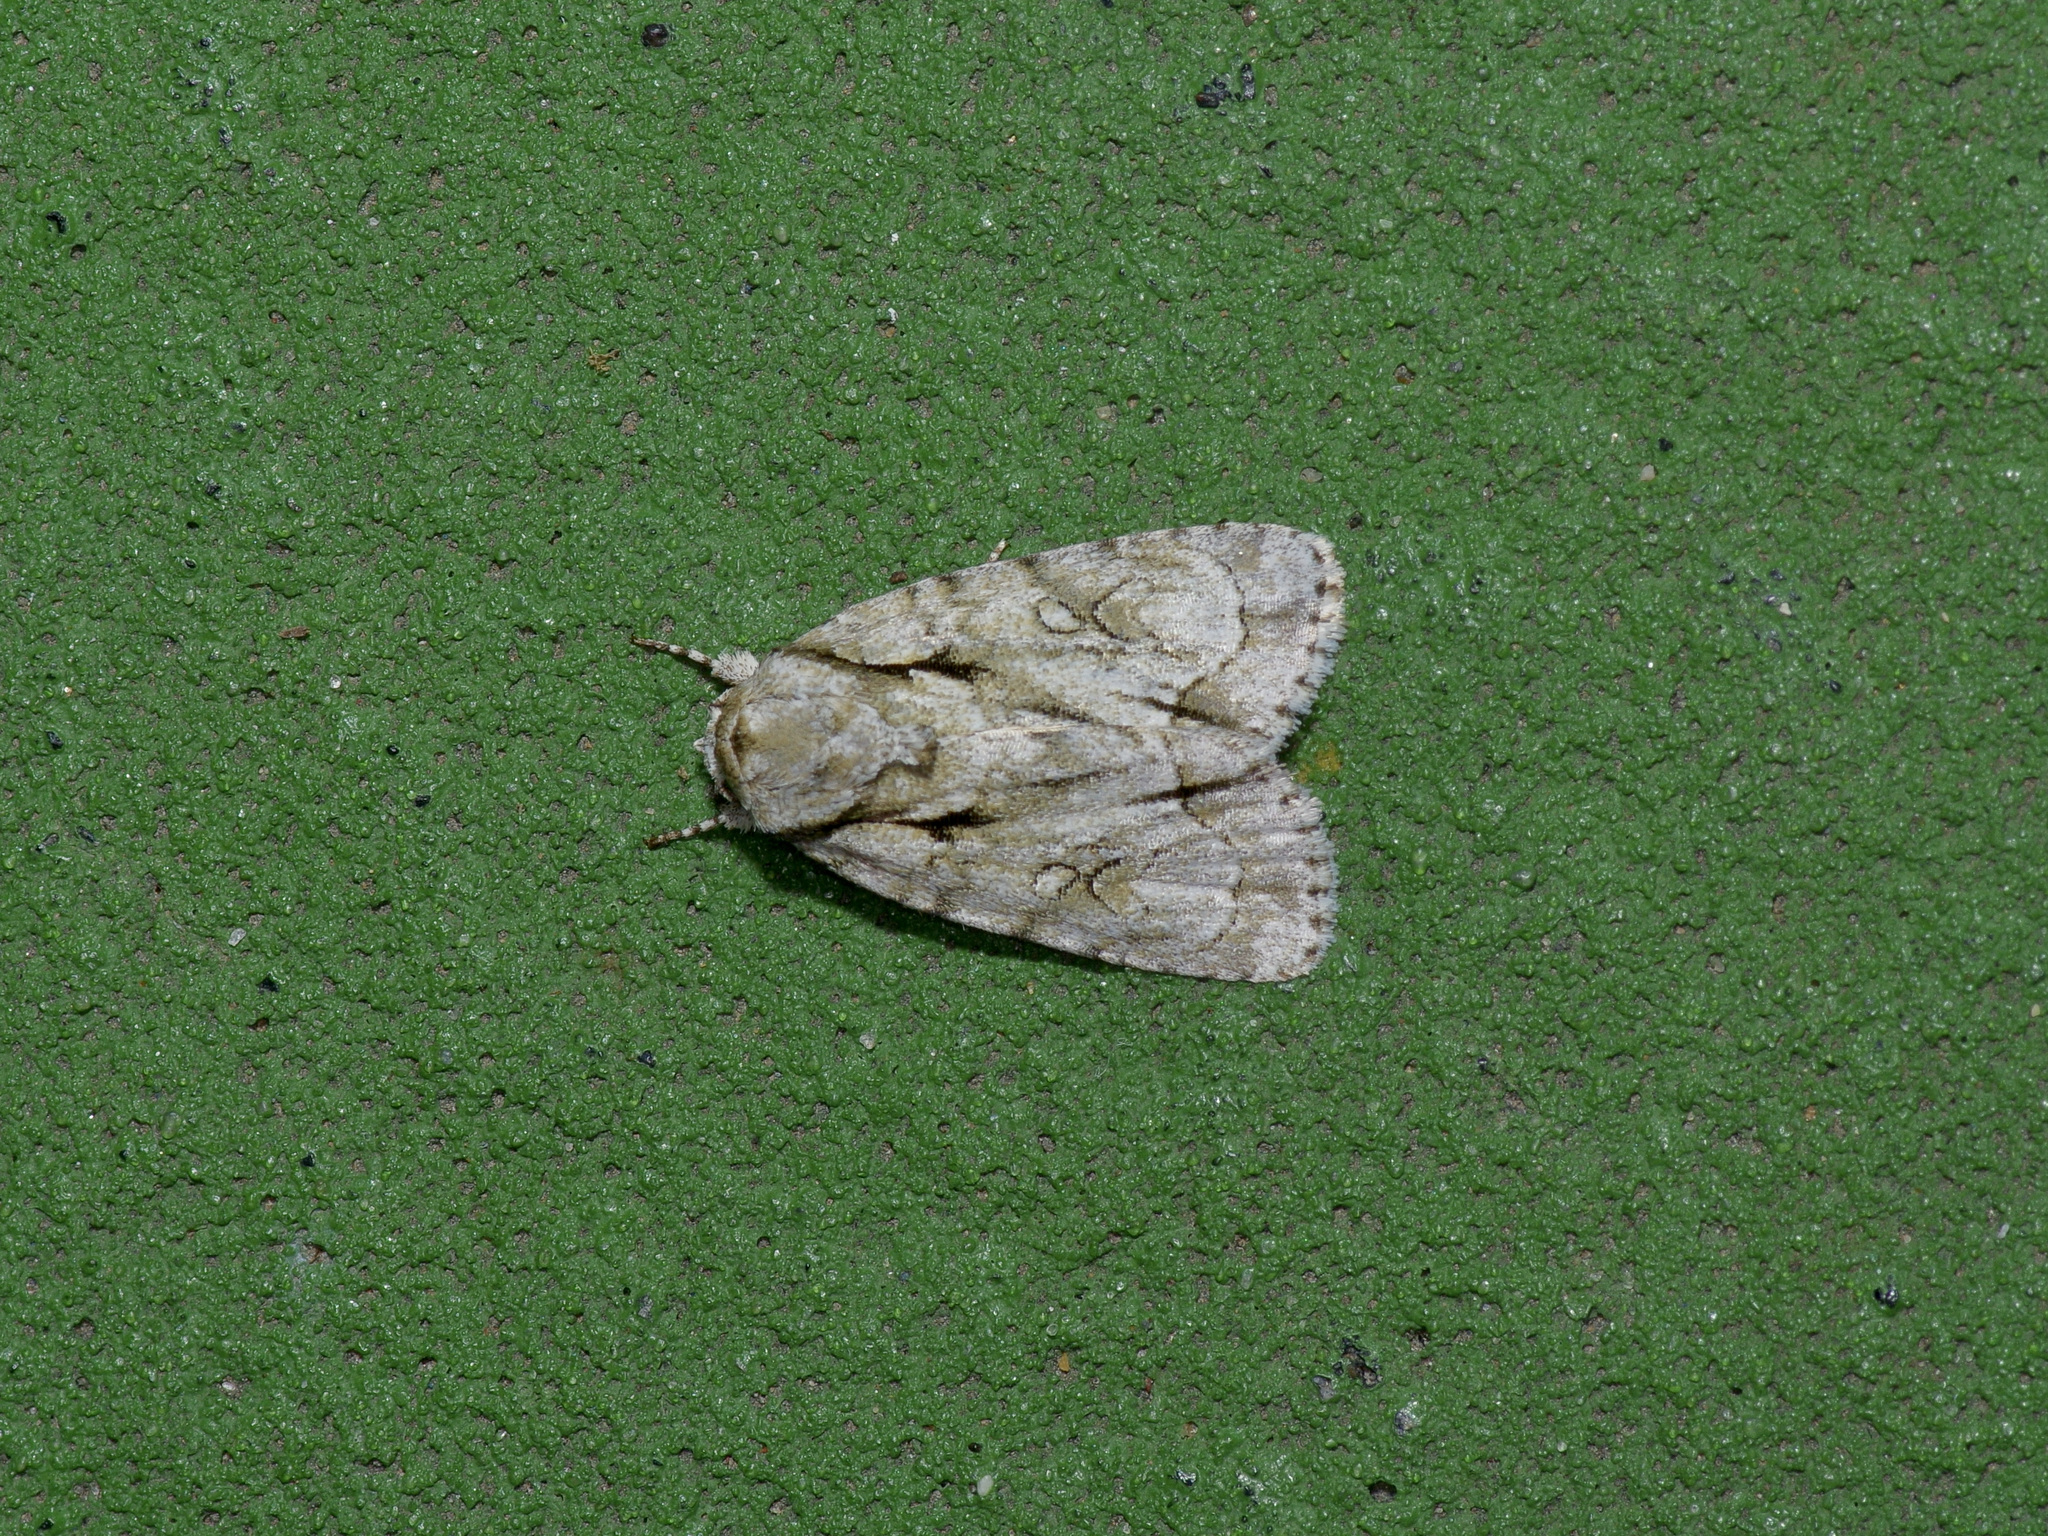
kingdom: Animalia
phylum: Arthropoda
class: Insecta
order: Lepidoptera
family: Noctuidae
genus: Acronicta
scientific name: Acronicta vinnula
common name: Delightful dagger
